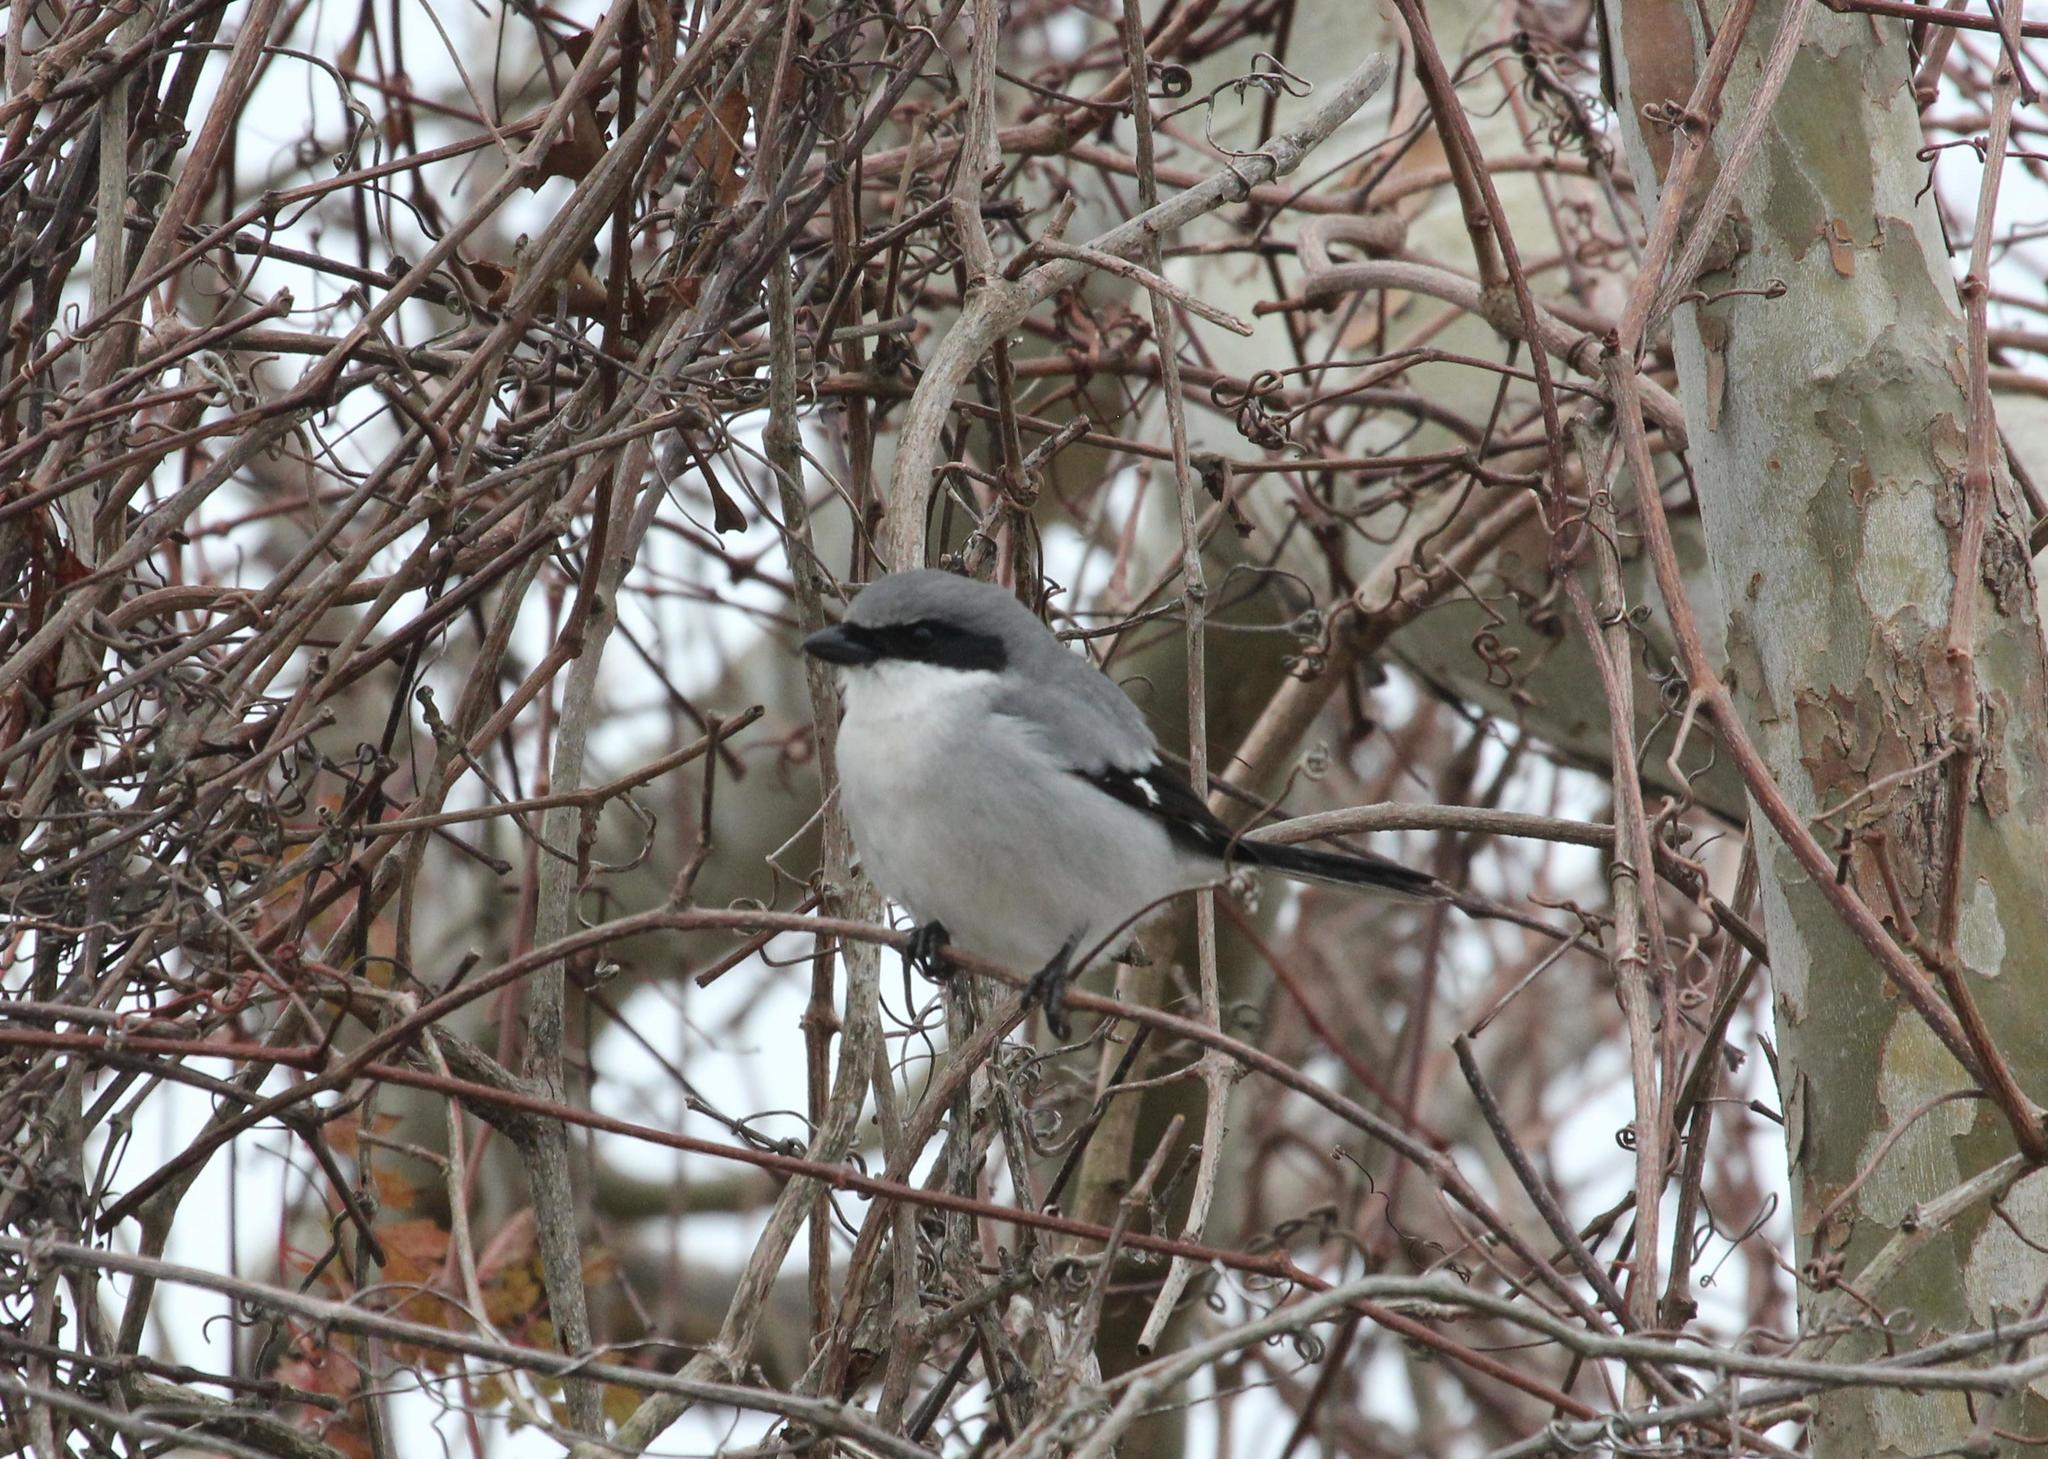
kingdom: Animalia
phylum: Chordata
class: Aves
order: Passeriformes
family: Laniidae
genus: Lanius
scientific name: Lanius ludovicianus
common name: Loggerhead shrike
